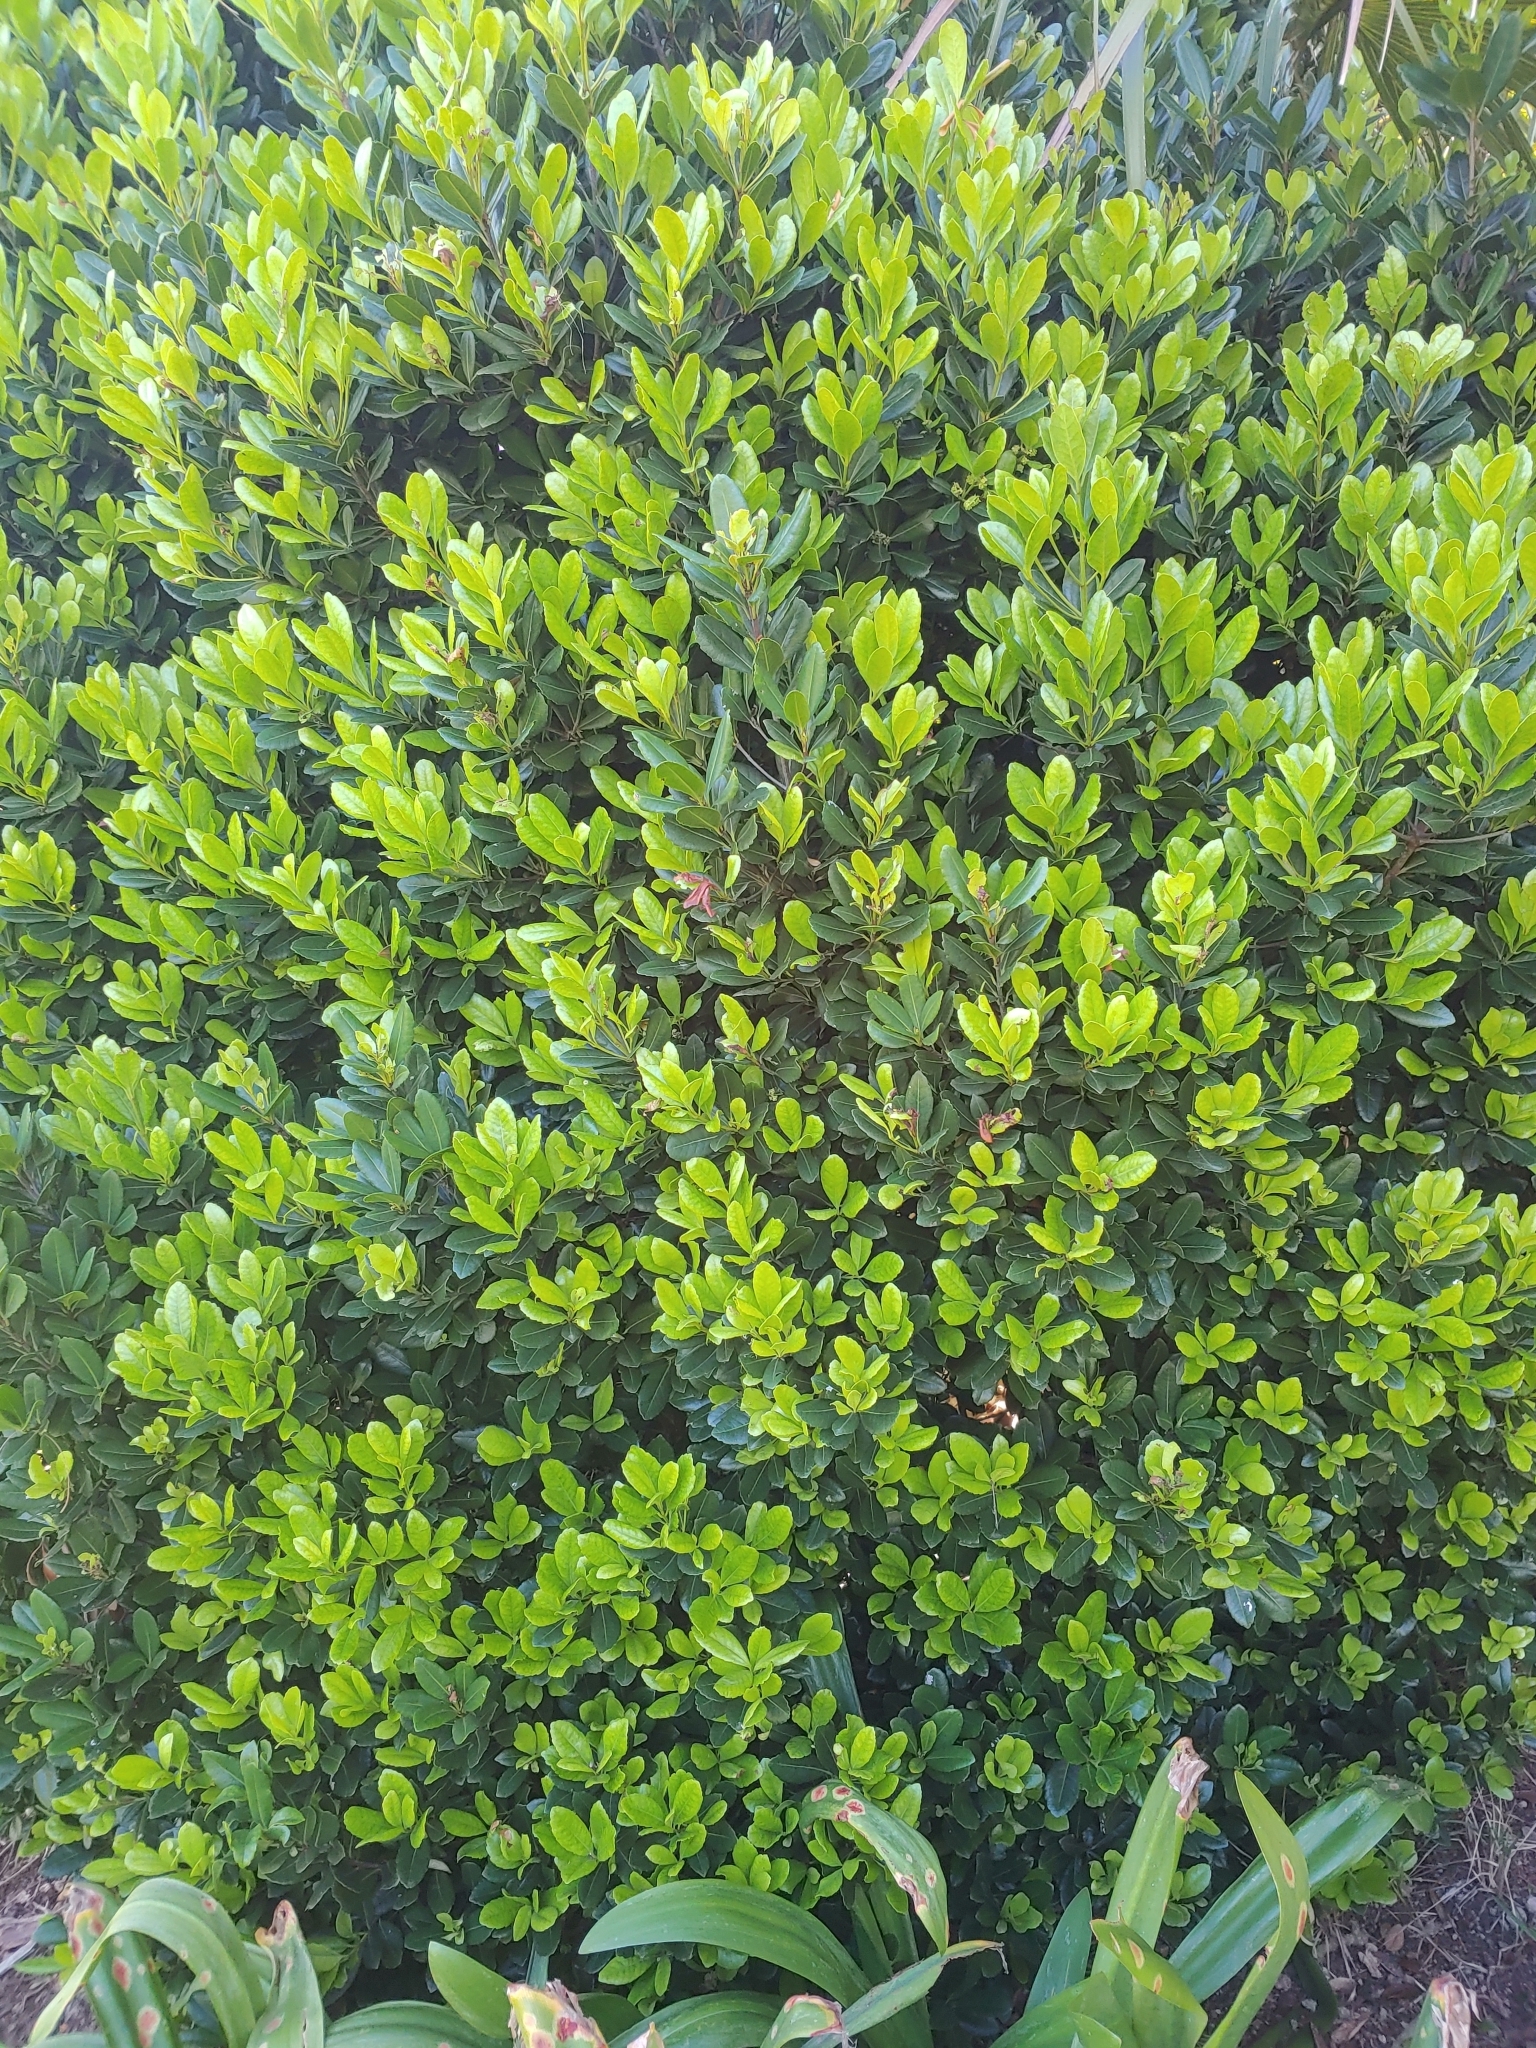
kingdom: Plantae
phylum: Tracheophyta
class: Magnoliopsida
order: Celastrales
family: Celastraceae
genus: Elaeodendron
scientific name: Elaeodendron laneanum
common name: Bermuda olivewood
